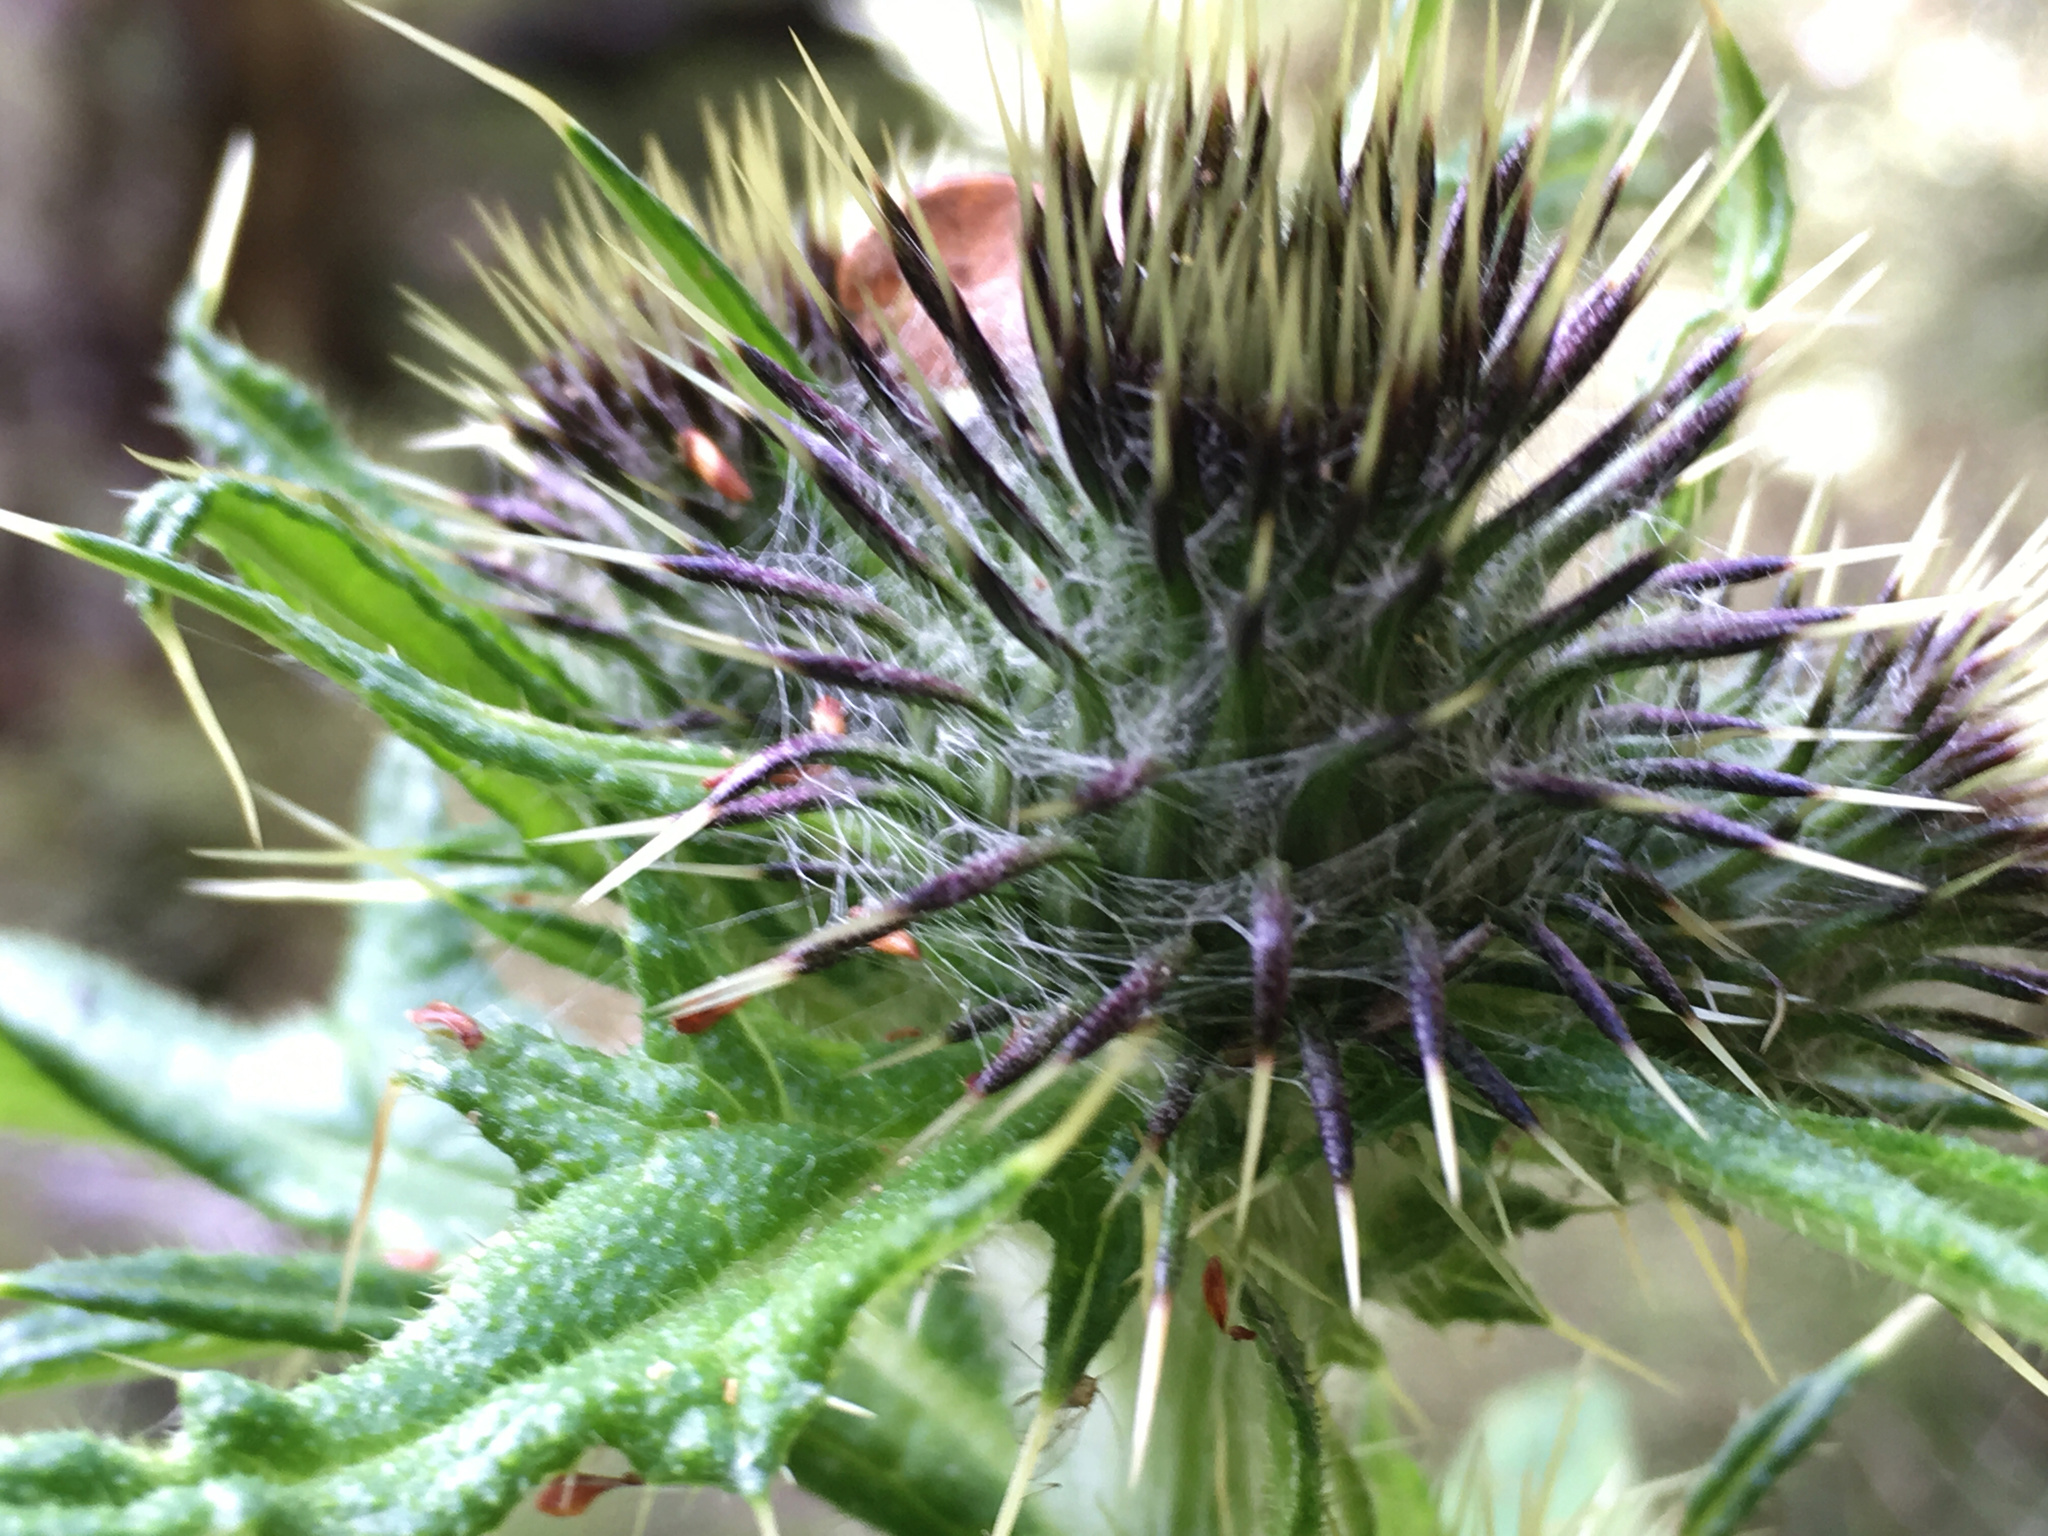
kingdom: Plantae
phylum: Tracheophyta
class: Magnoliopsida
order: Asterales
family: Asteraceae
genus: Cirsium
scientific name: Cirsium vulgare
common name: Bull thistle
